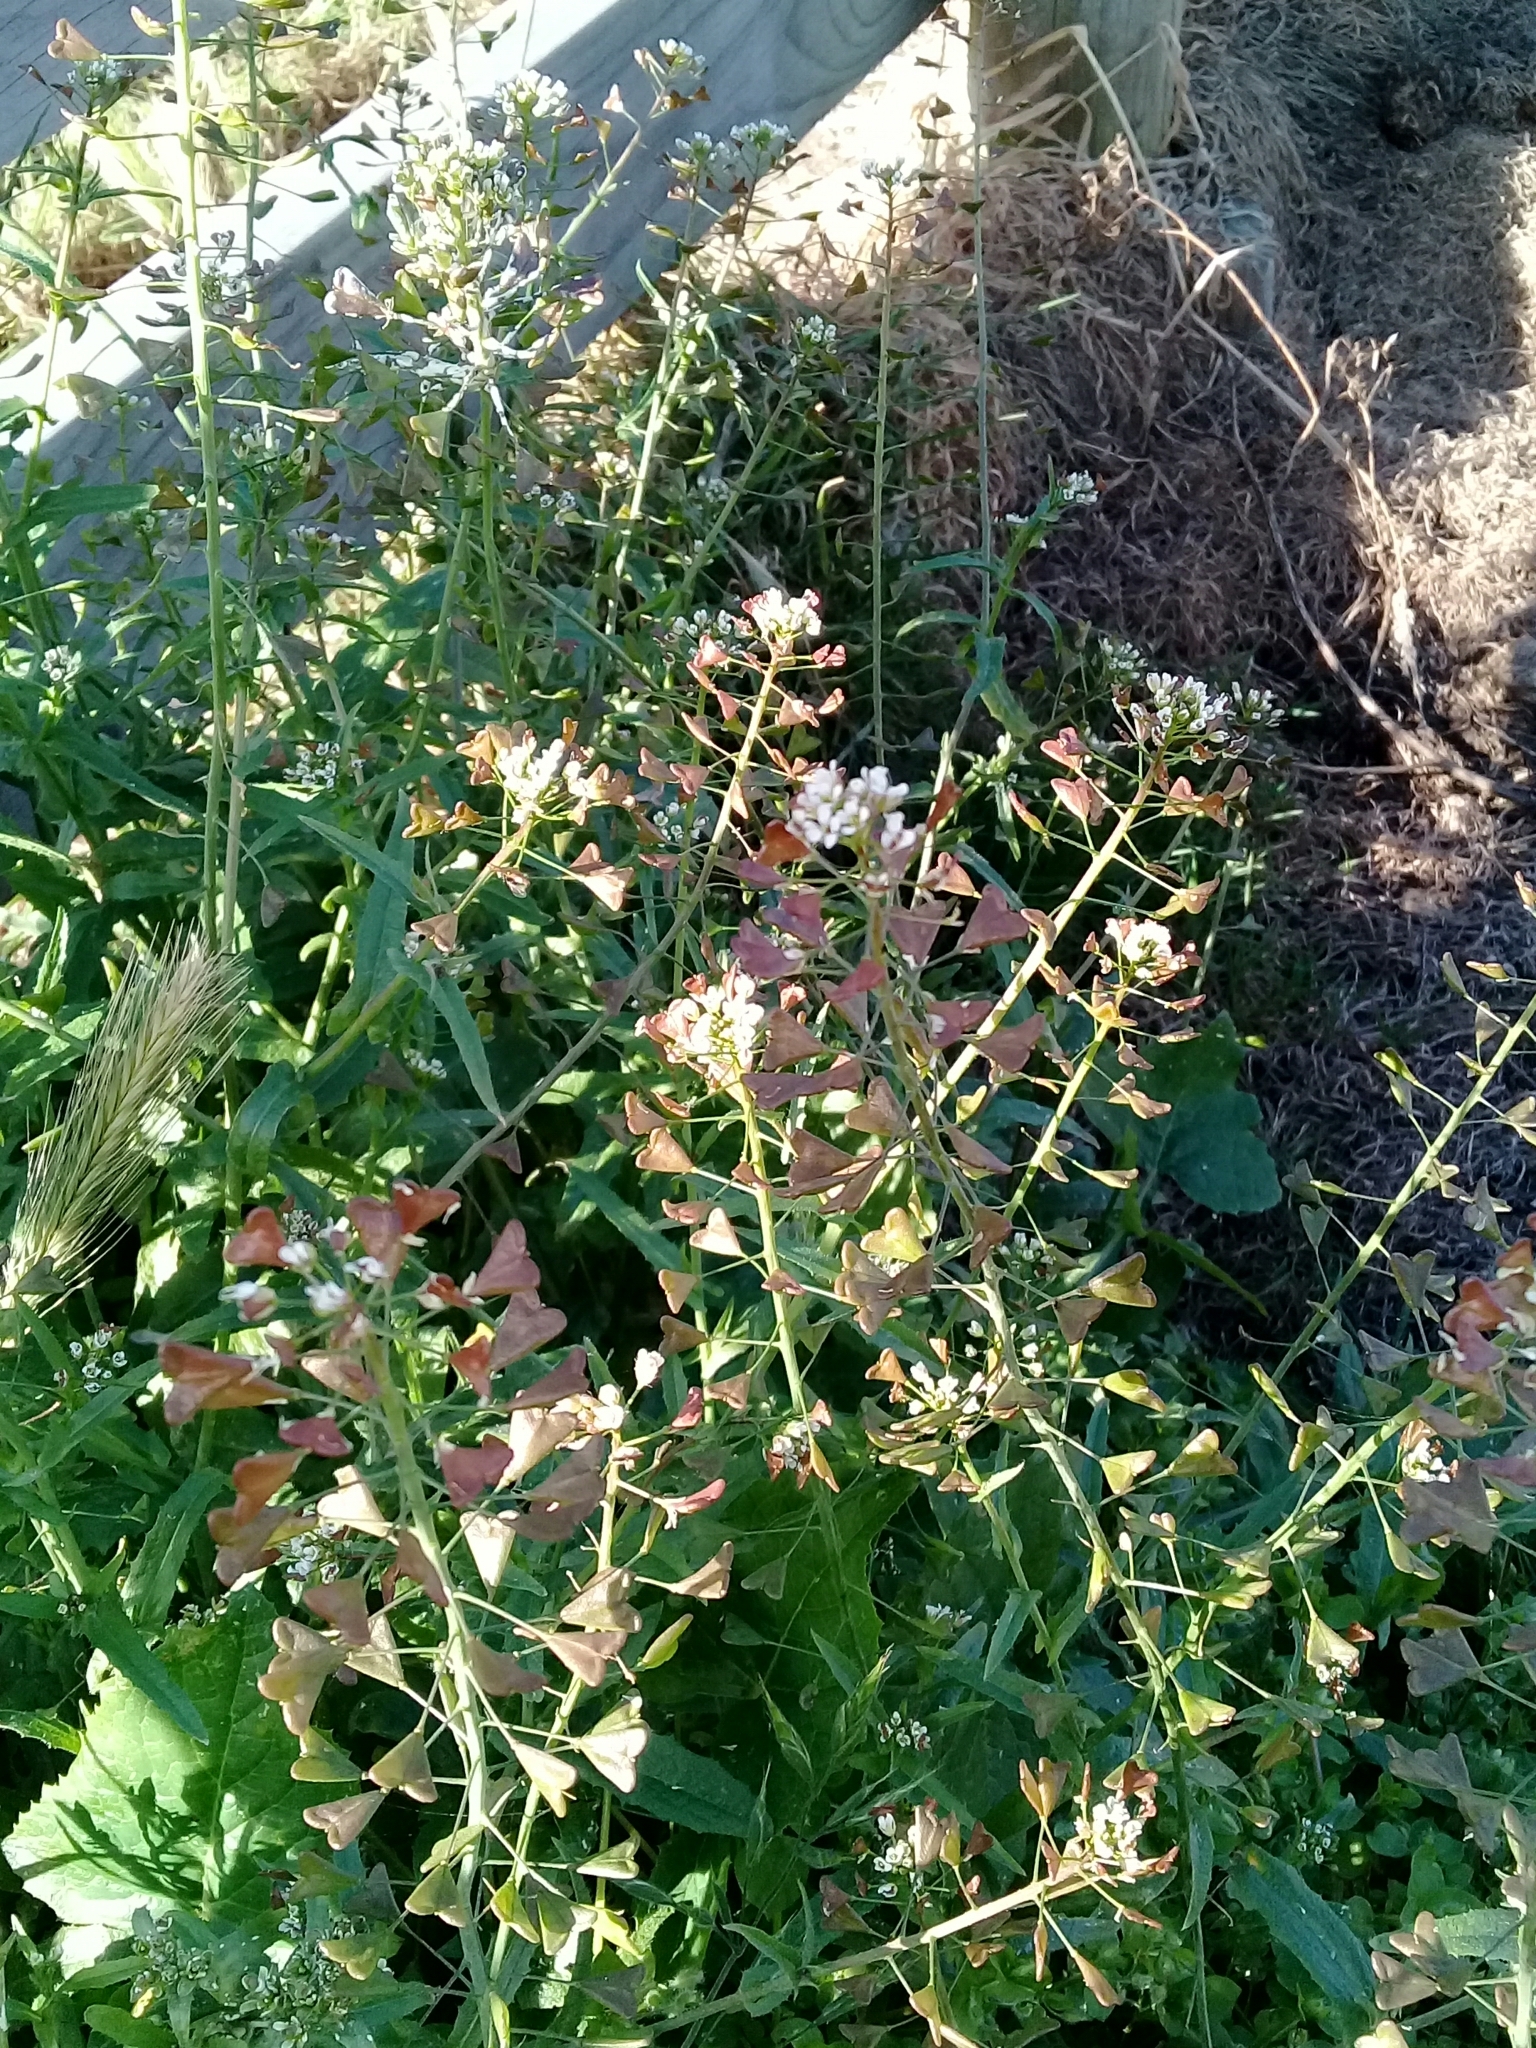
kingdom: Plantae
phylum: Tracheophyta
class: Magnoliopsida
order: Brassicales
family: Brassicaceae
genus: Capsella
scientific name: Capsella bursa-pastoris
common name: Shepherd's purse
